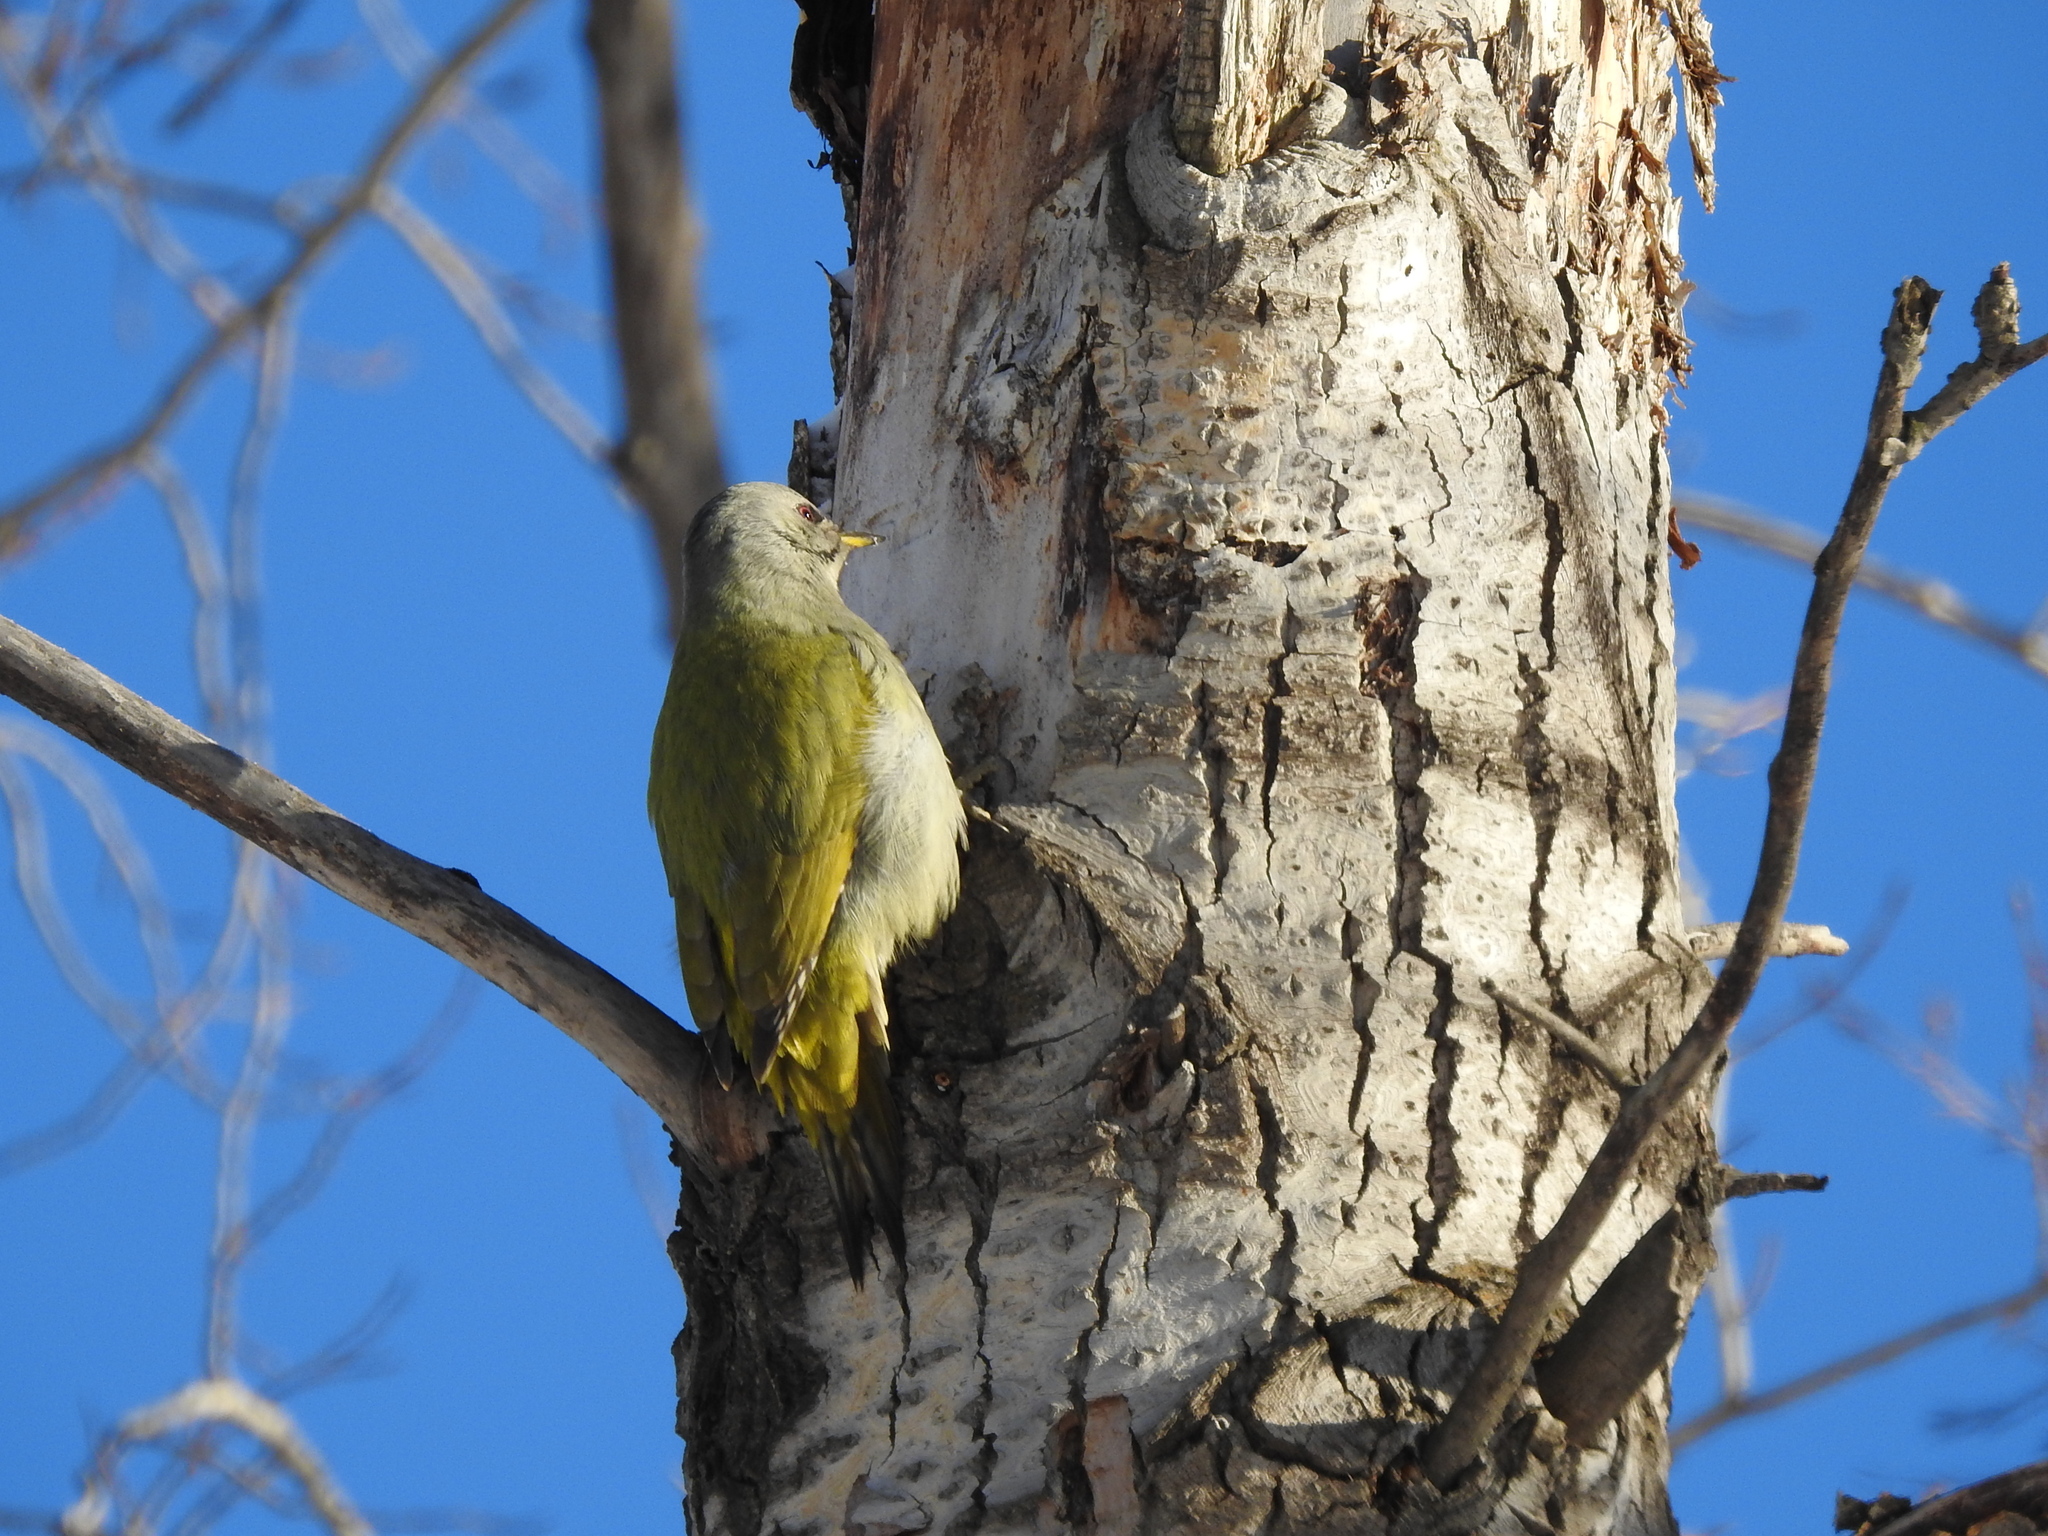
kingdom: Animalia
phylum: Chordata
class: Aves
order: Piciformes
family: Picidae
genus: Picus
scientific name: Picus canus
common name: Grey-headed woodpecker
